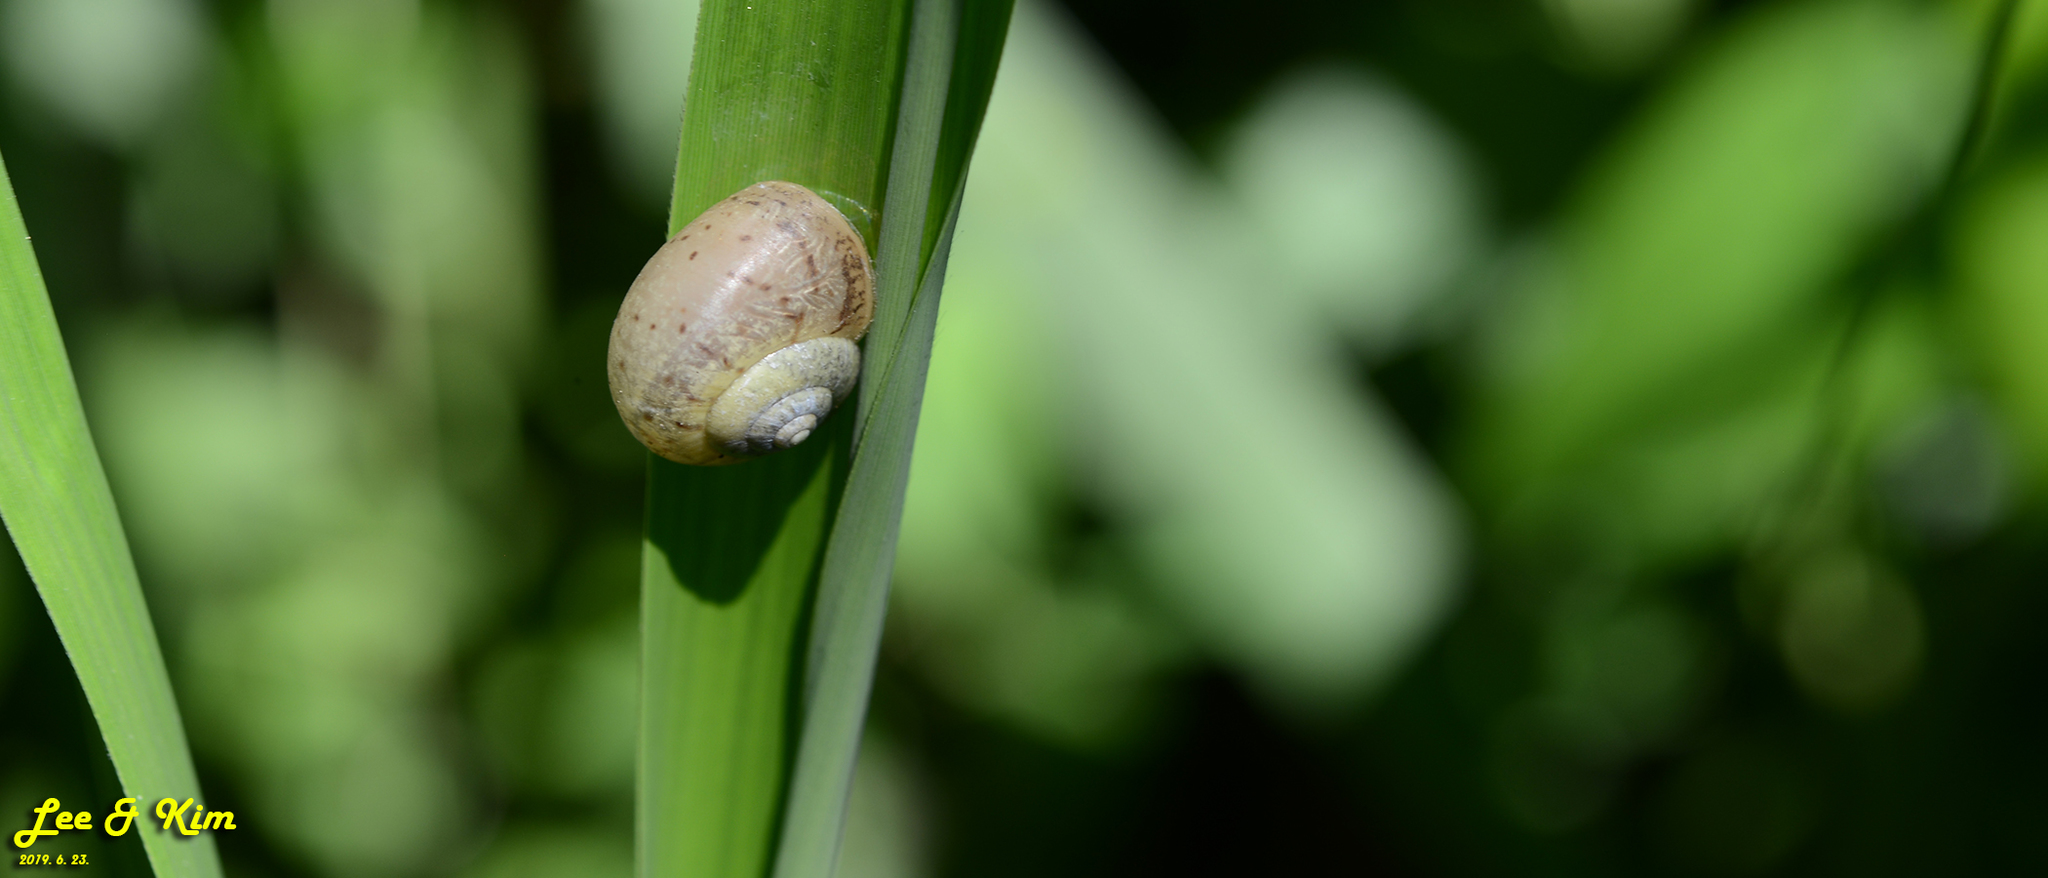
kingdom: Animalia
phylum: Mollusca
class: Gastropoda
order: Stylommatophora
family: Camaenidae
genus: Acusta
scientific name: Acusta redfieldi
